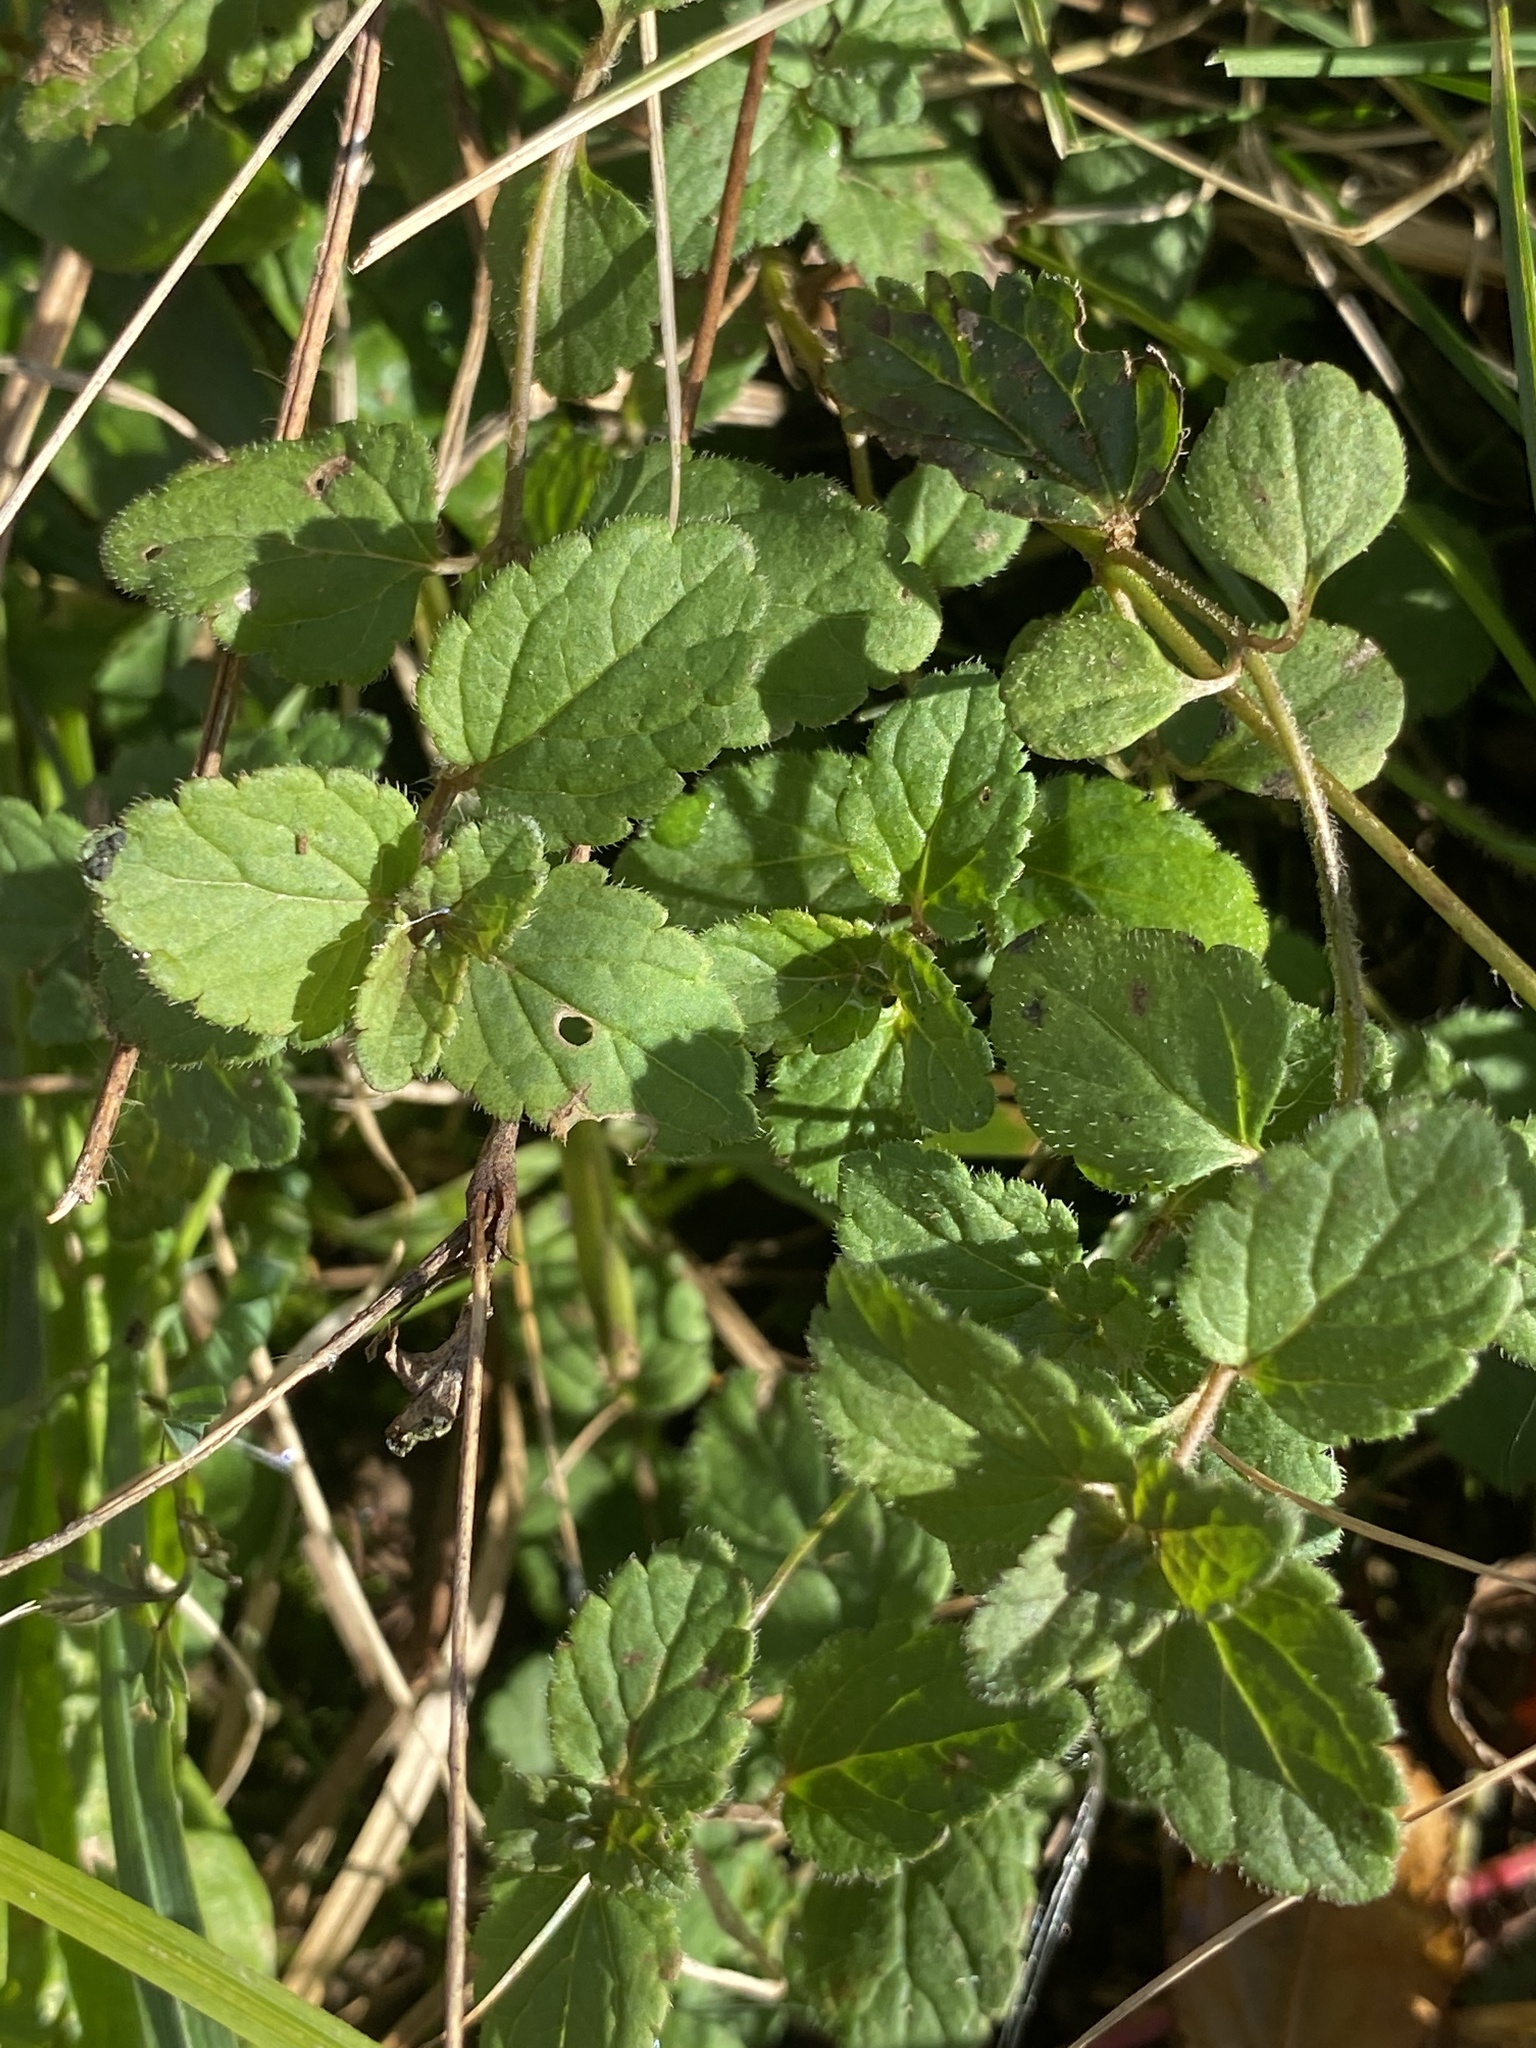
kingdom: Plantae
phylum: Tracheophyta
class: Magnoliopsida
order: Lamiales
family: Plantaginaceae
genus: Veronica
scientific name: Veronica chamaedrys
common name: Germander speedwell
